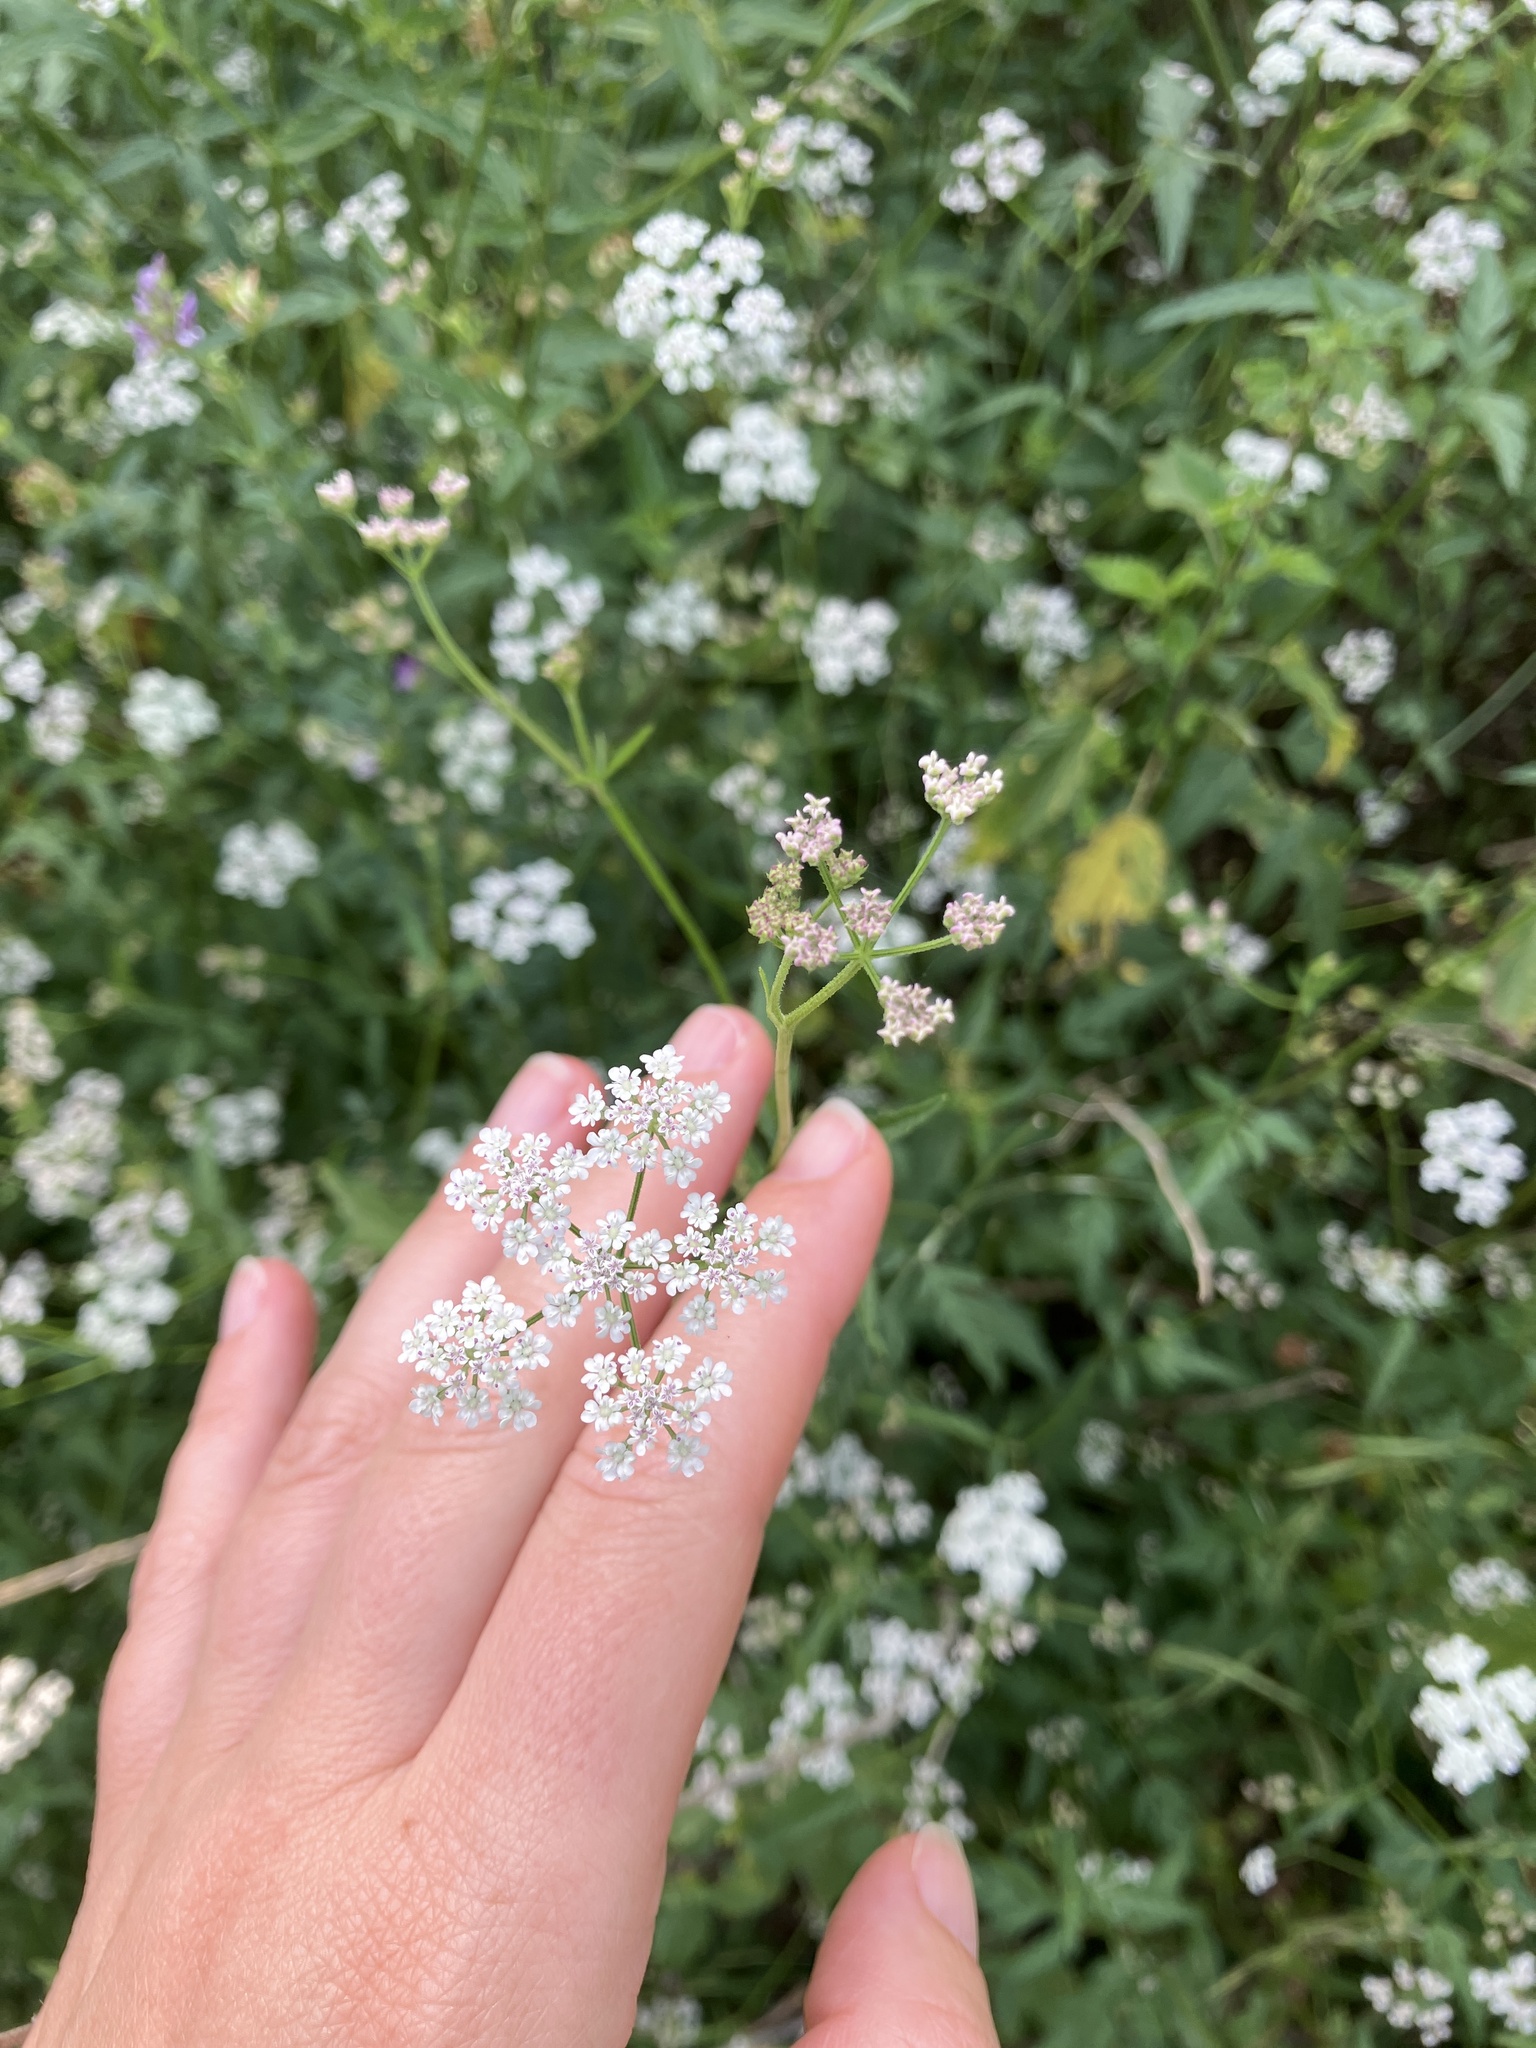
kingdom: Plantae
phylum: Tracheophyta
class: Magnoliopsida
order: Apiales
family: Apiaceae
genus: Torilis
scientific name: Torilis japonica
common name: Upright hedge-parsley
